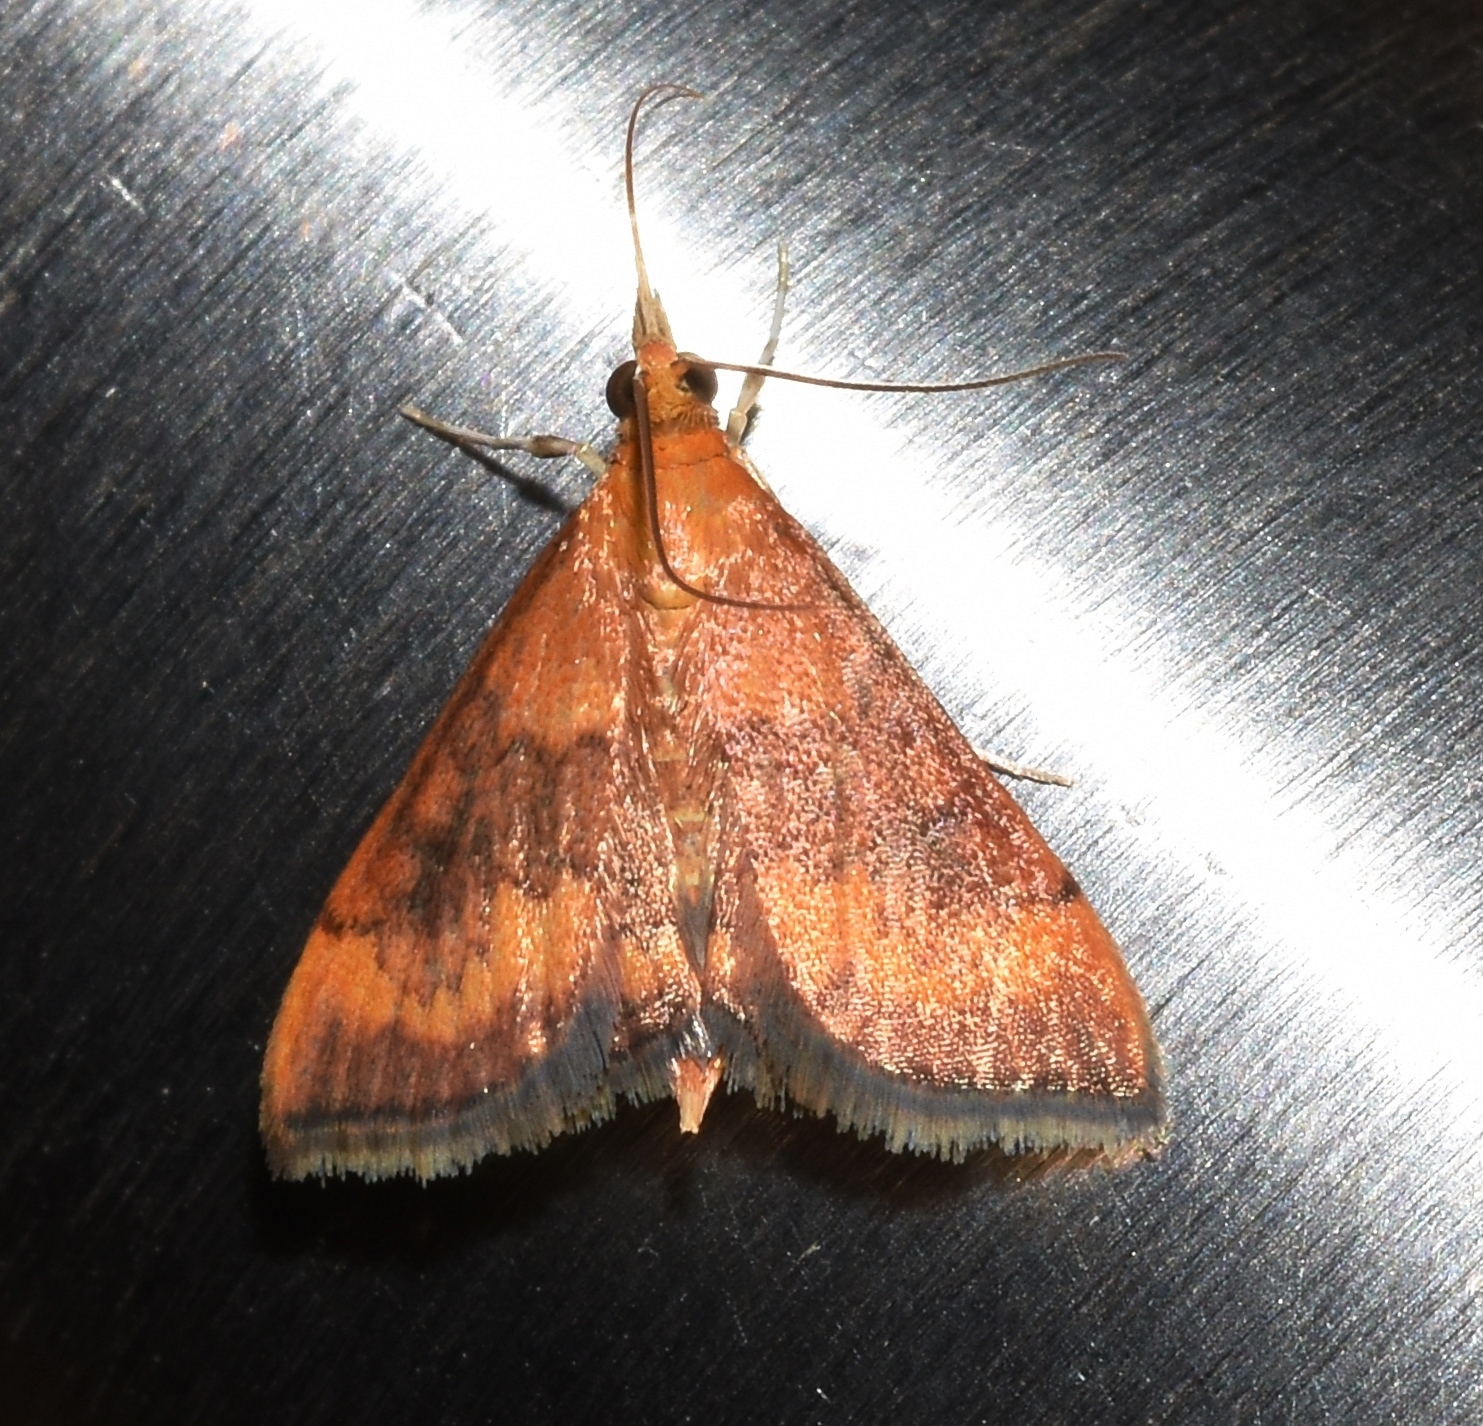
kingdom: Animalia
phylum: Arthropoda
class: Insecta
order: Lepidoptera
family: Crambidae
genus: Pyrausta
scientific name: Pyrausta rubricalis
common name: Variable reddish pyrausta
